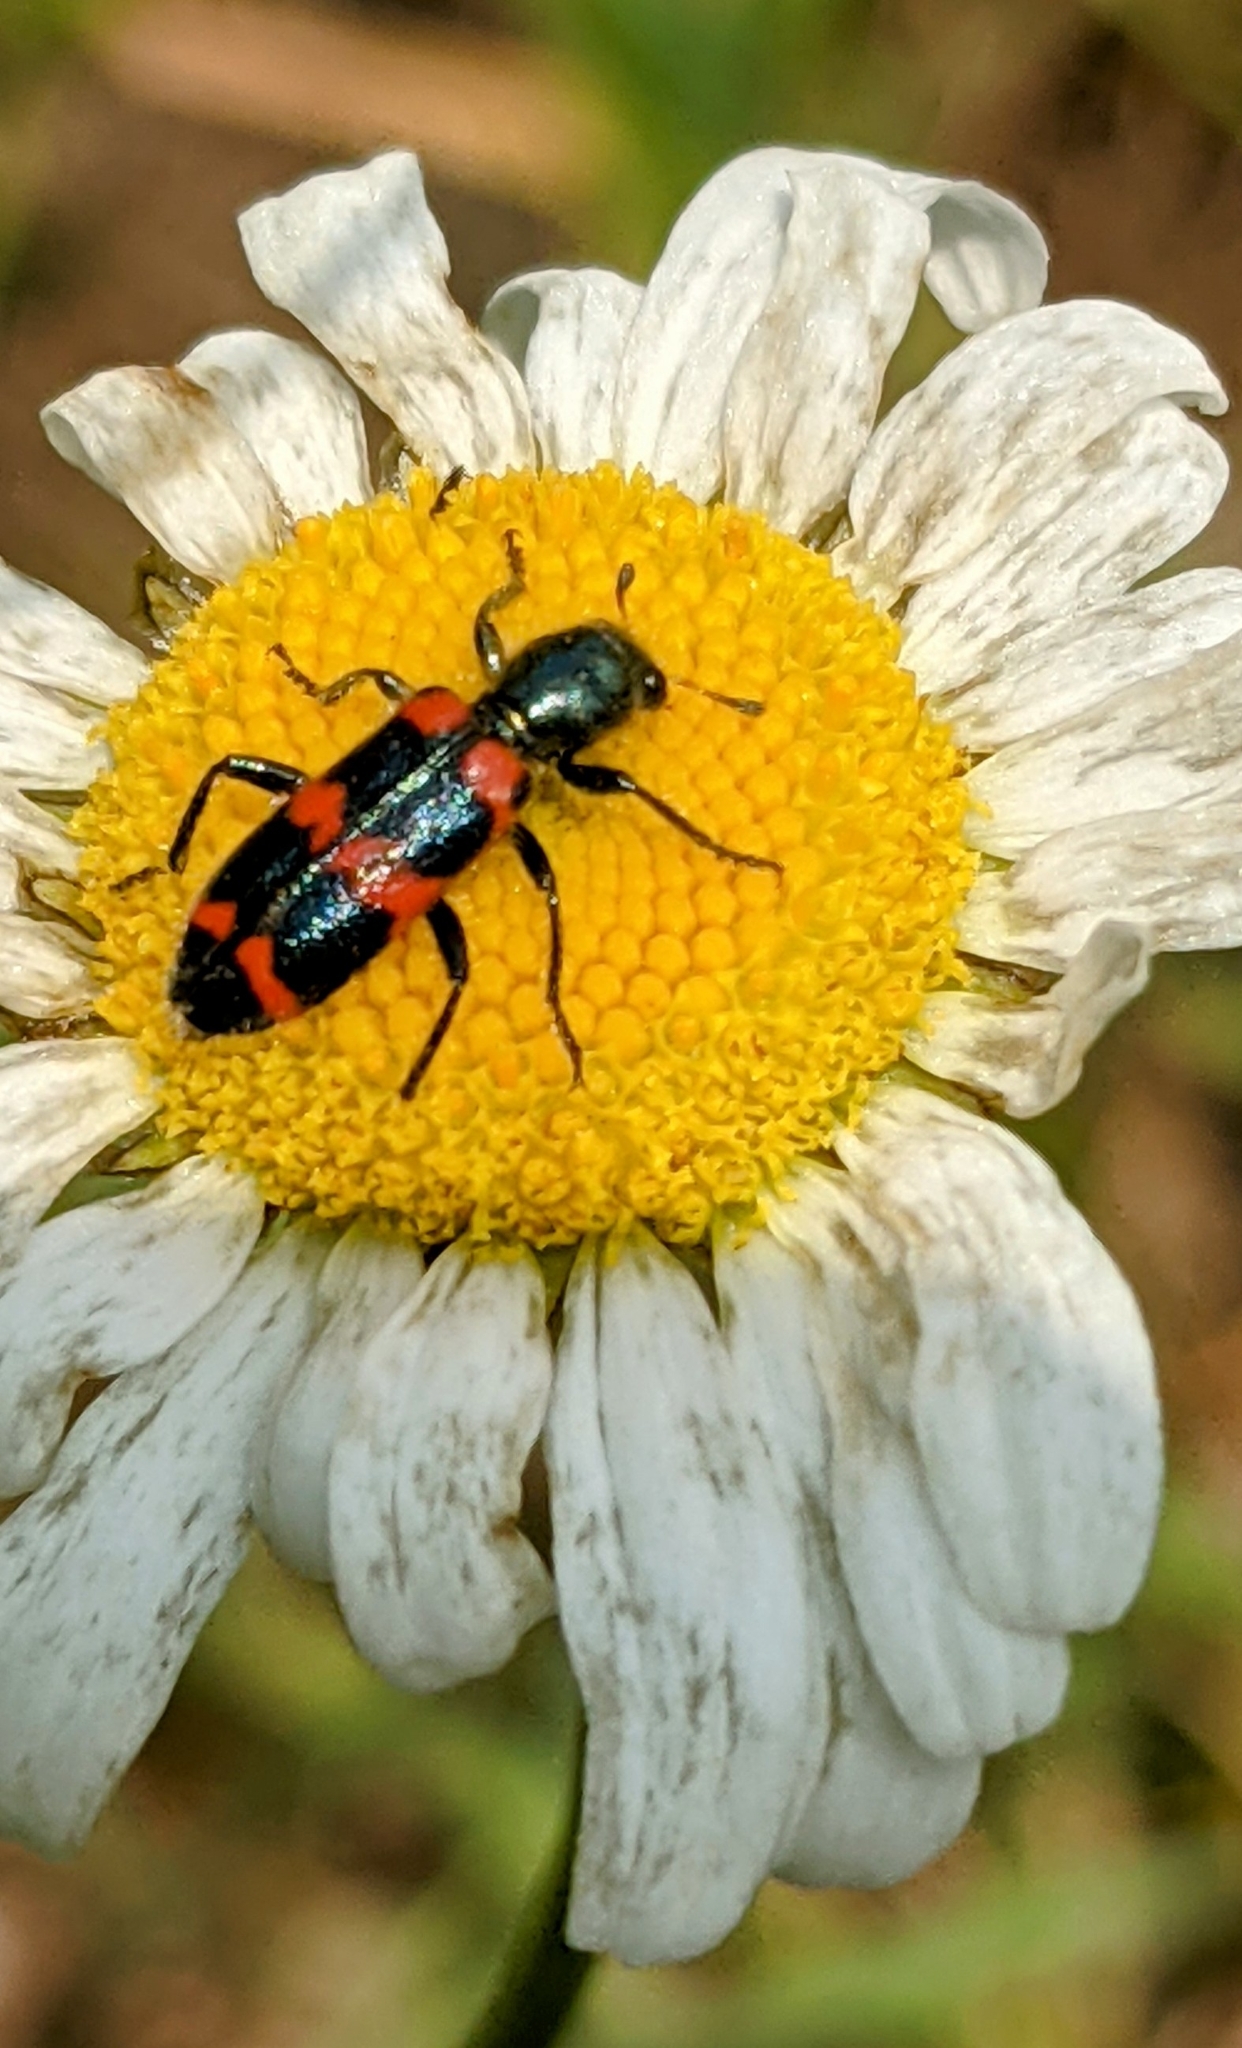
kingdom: Animalia
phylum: Arthropoda
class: Insecta
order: Coleoptera
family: Cleridae
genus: Trichodes
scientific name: Trichodes nutalli
